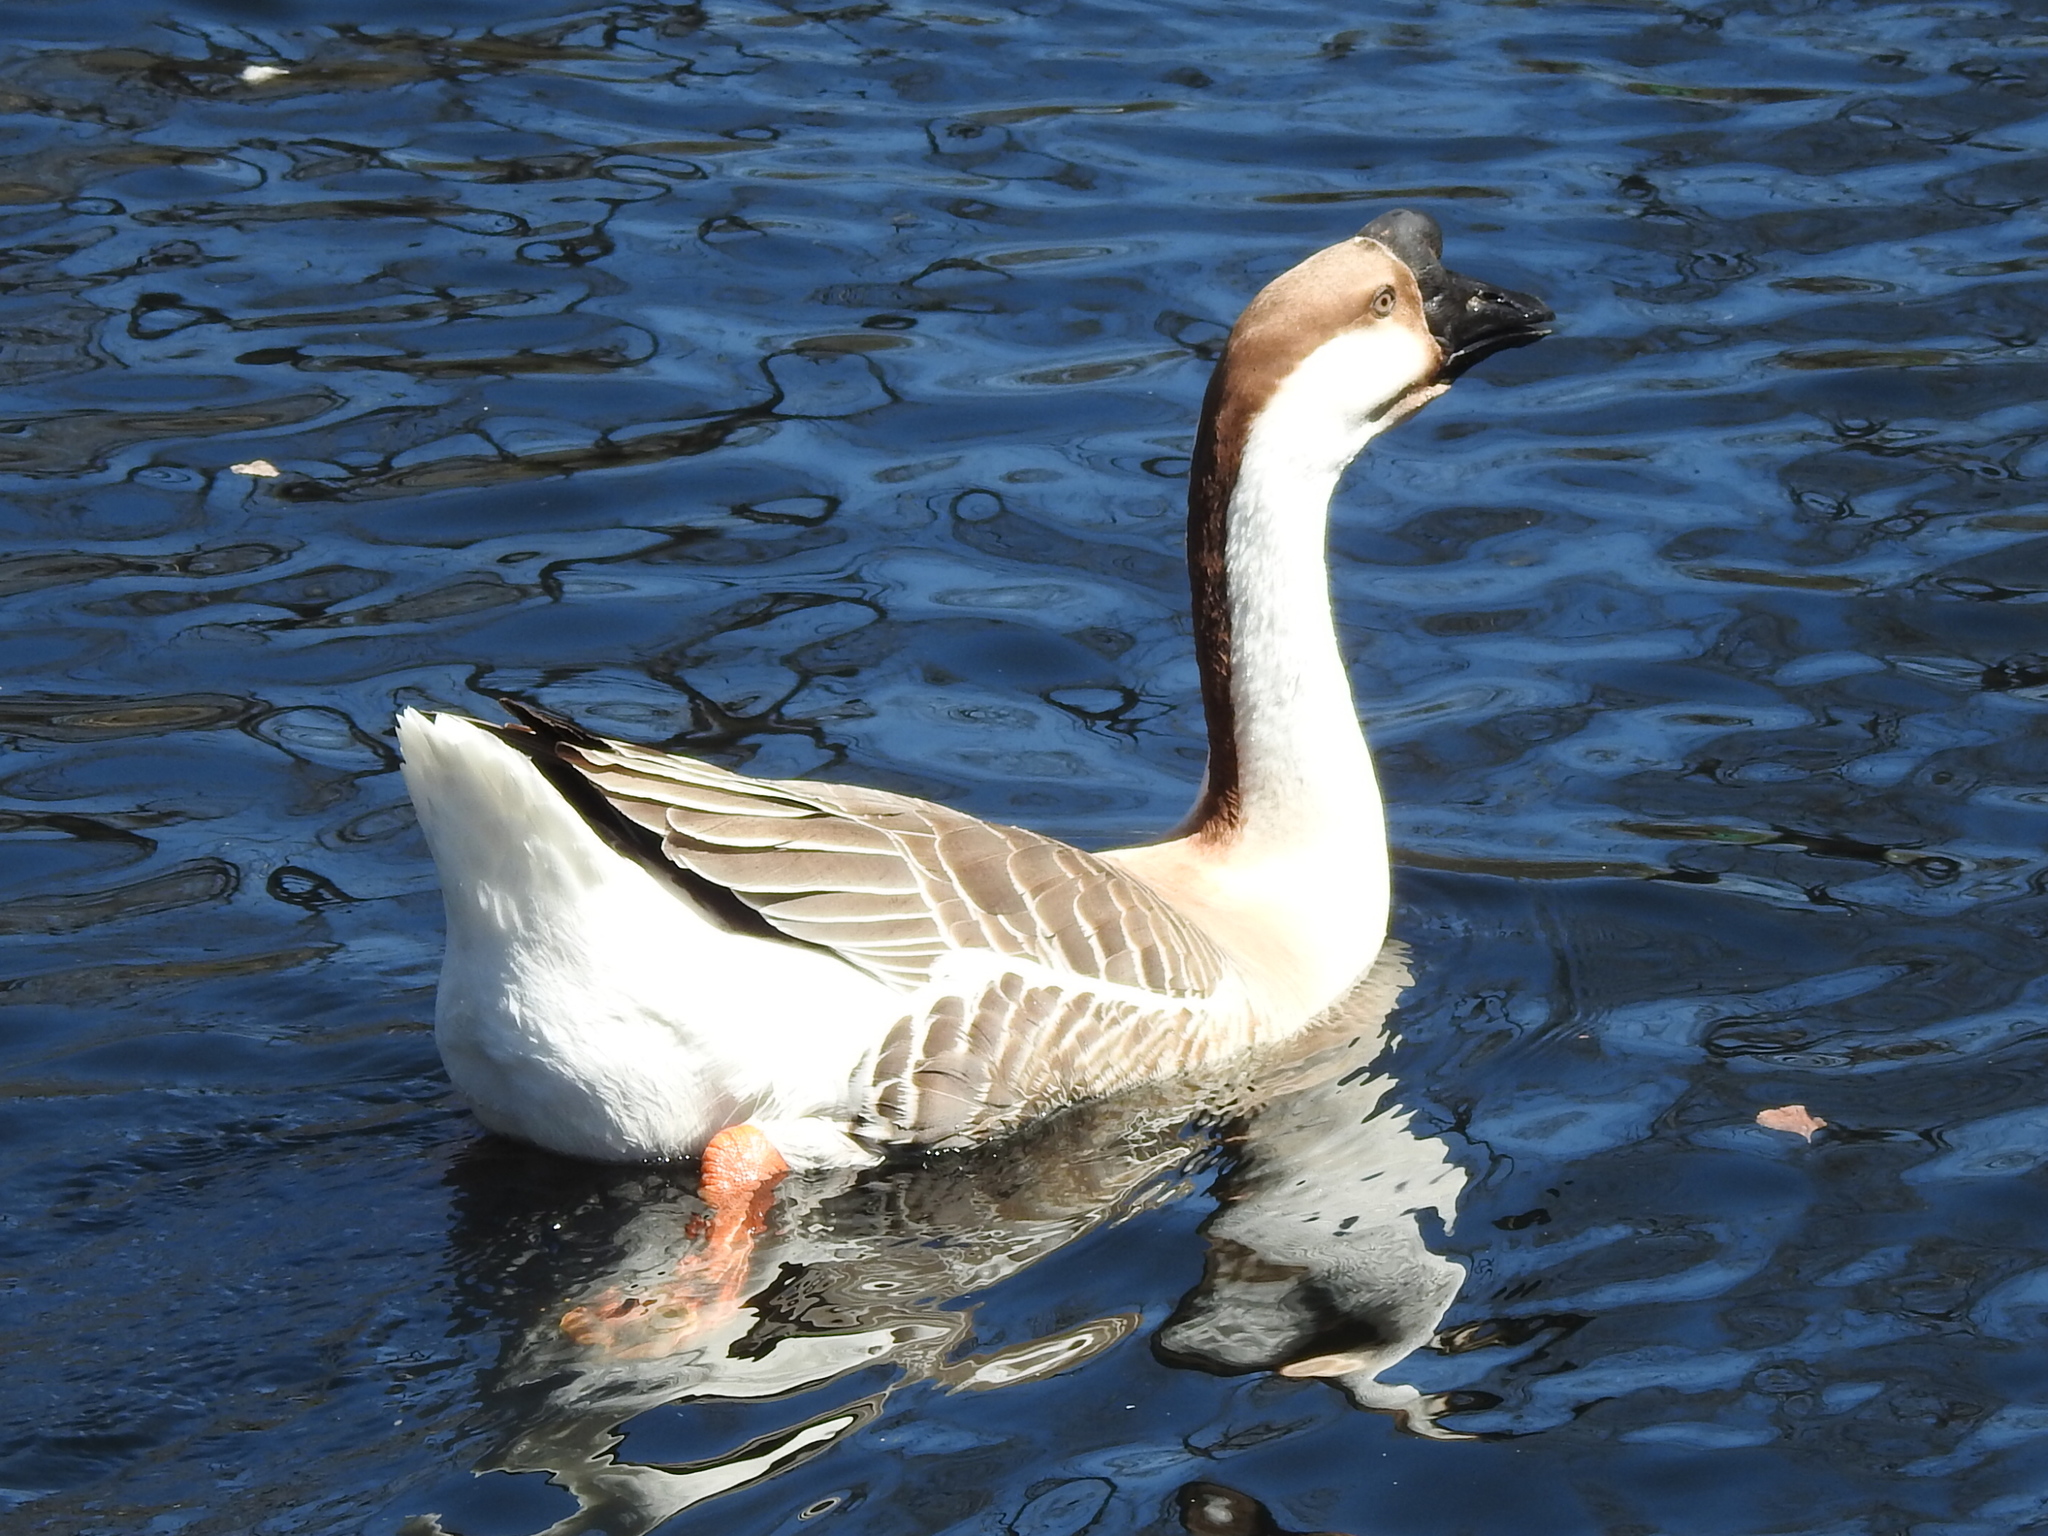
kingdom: Animalia
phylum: Chordata
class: Aves
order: Anseriformes
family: Anatidae
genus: Anser
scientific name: Anser cygnoides
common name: Swan goose
